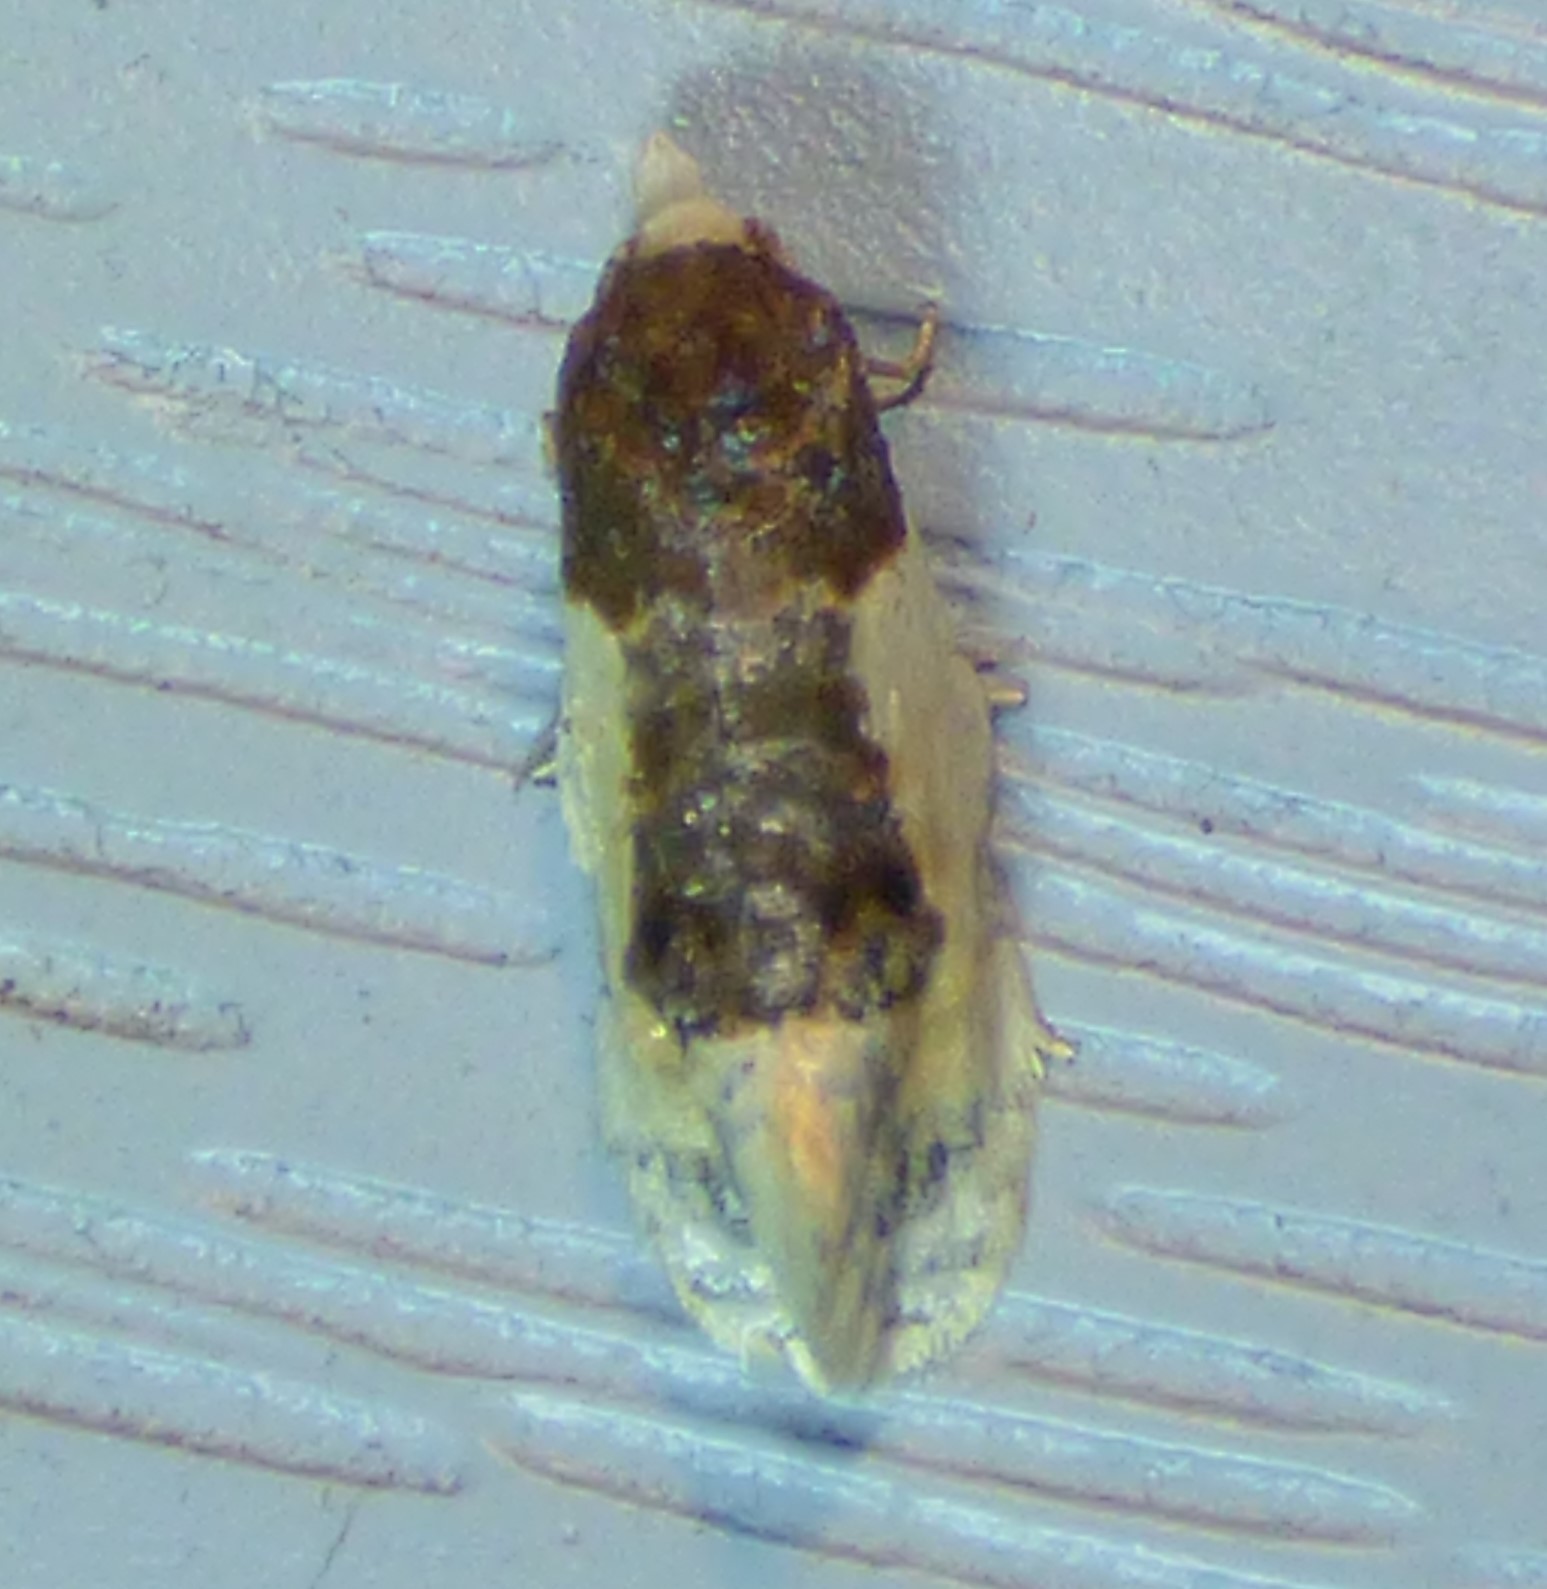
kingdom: Animalia
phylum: Arthropoda
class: Insecta
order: Lepidoptera
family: Tortricidae
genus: Henricus
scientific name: Henricus edwardsiana
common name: Contrasting henricus moth
